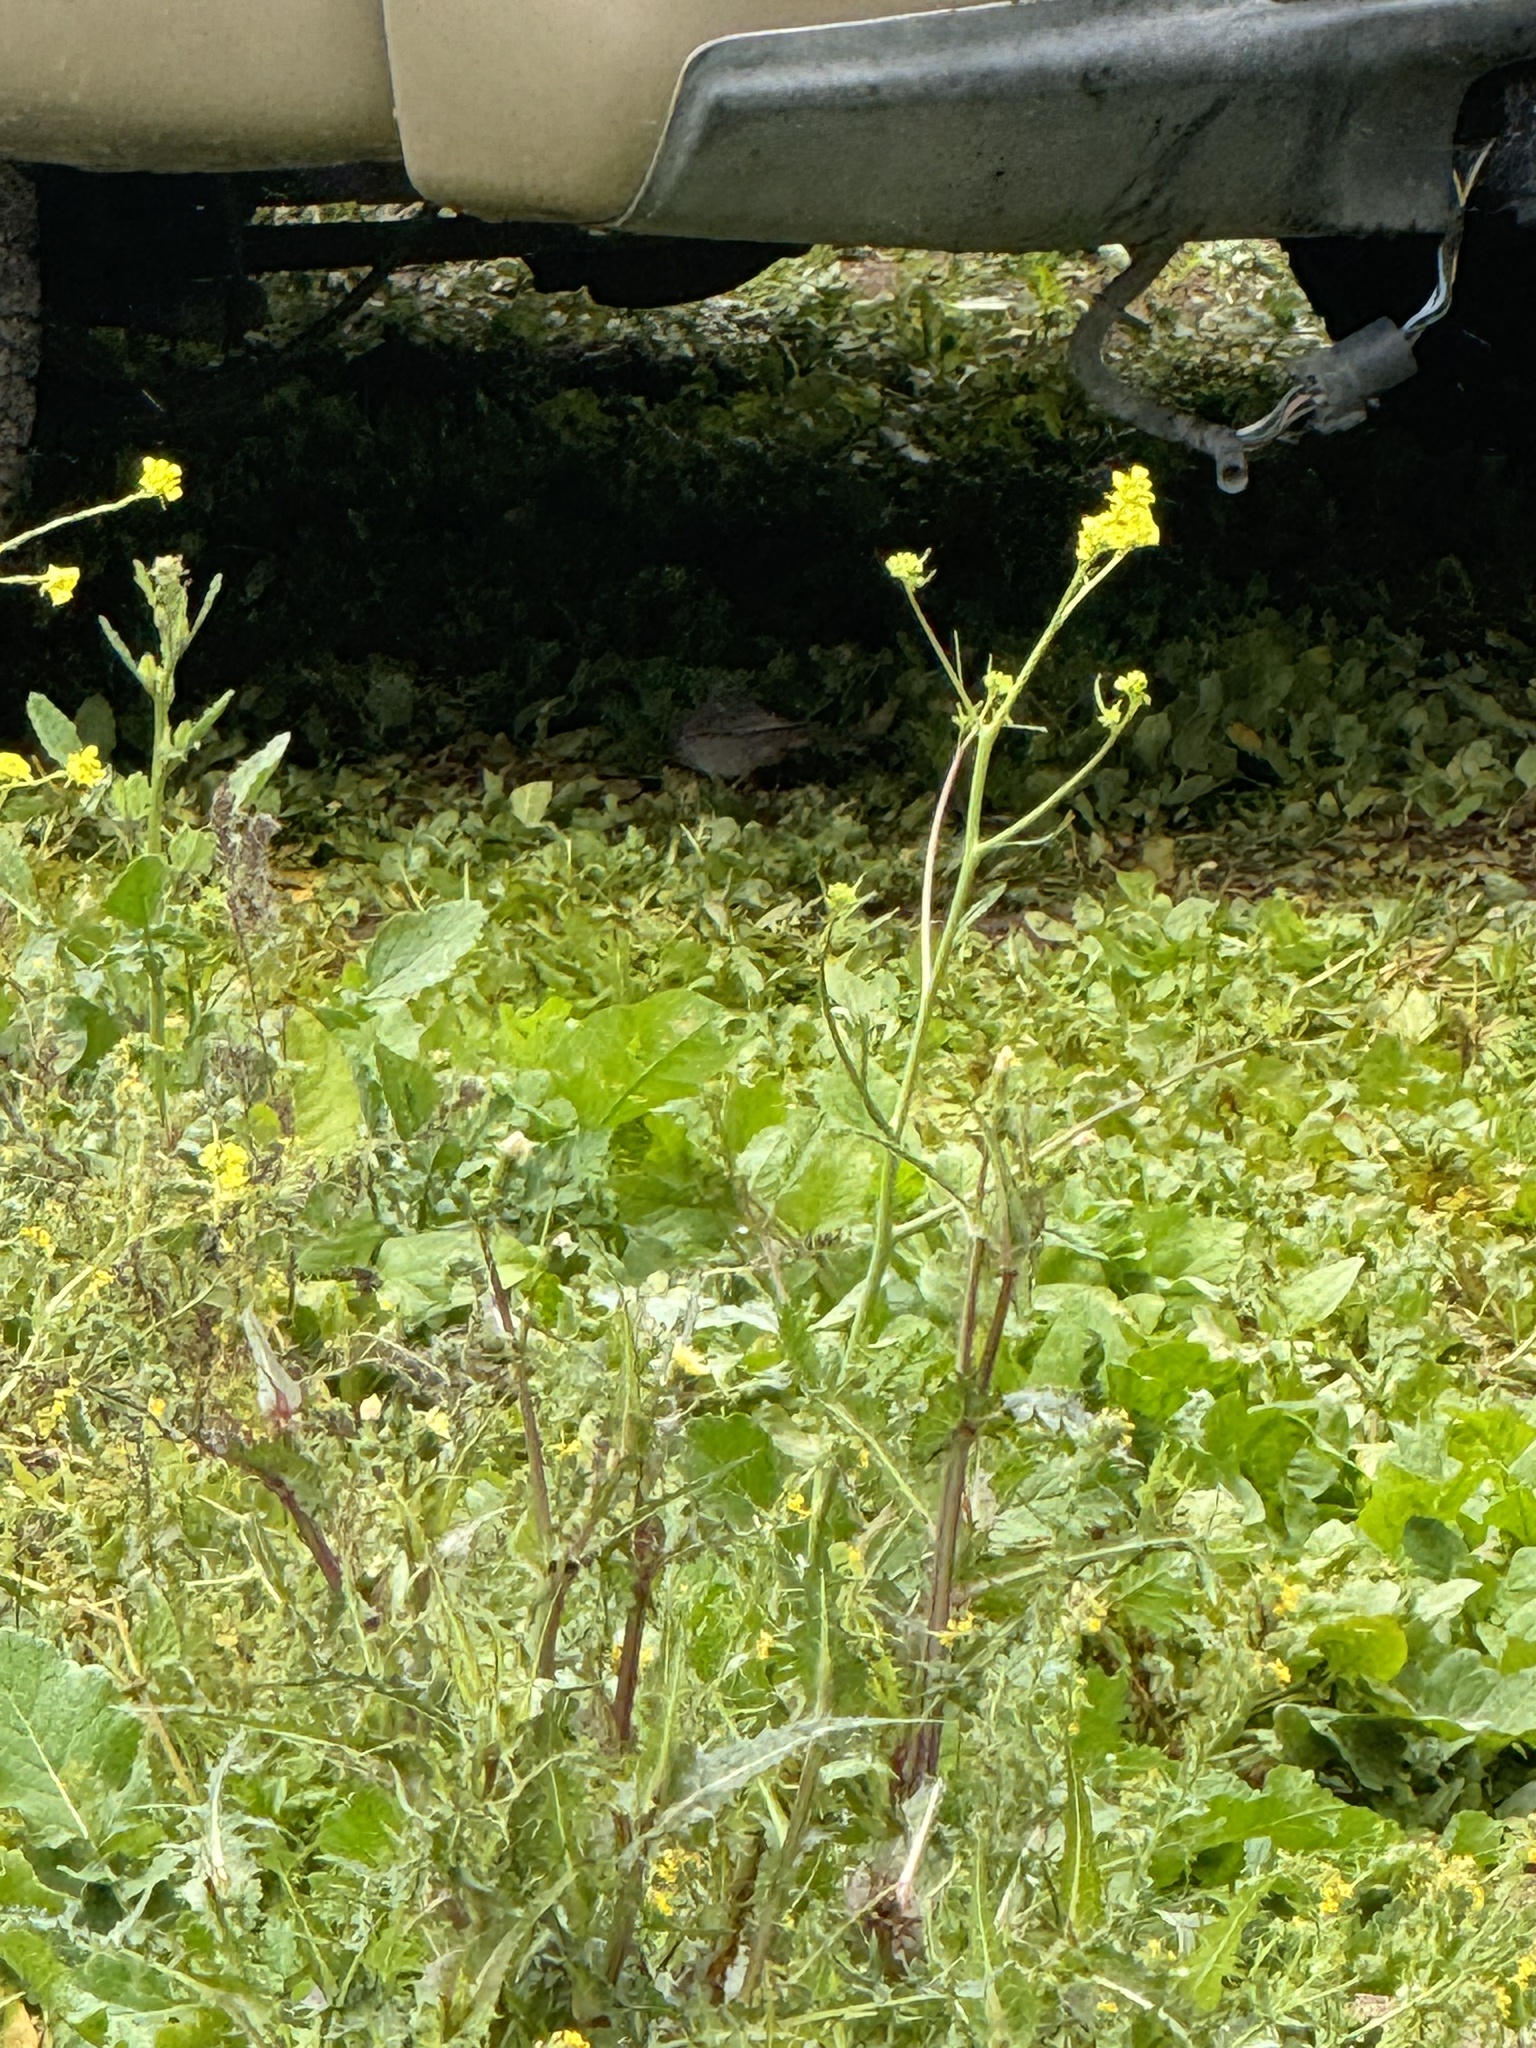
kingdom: Animalia
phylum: Chordata
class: Aves
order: Passeriformes
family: Passerellidae
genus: Melozone
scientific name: Melozone crissalis
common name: California towhee
